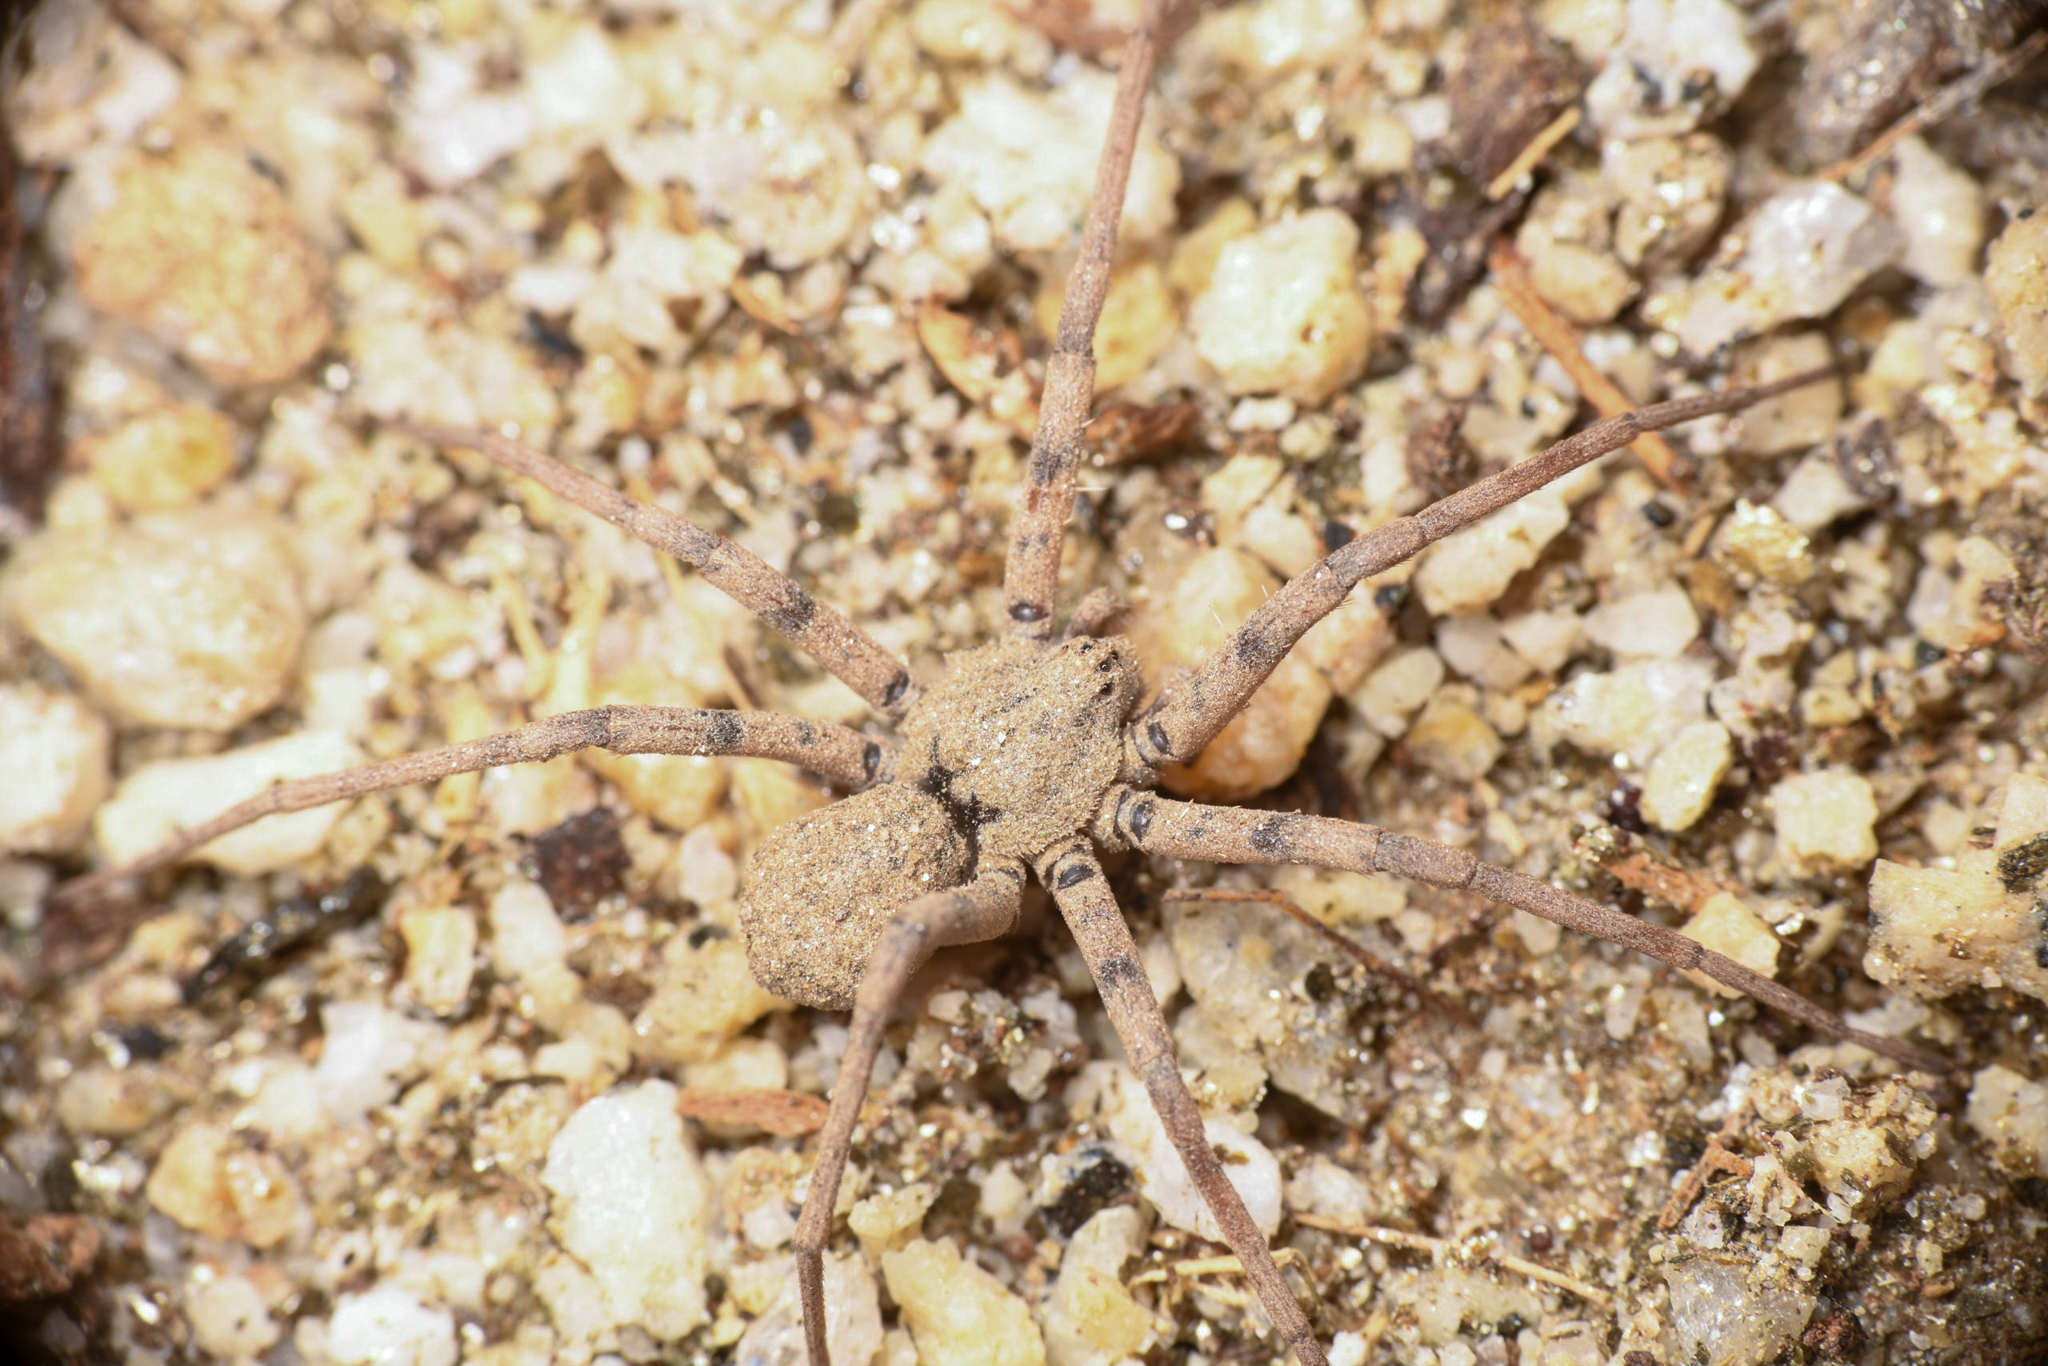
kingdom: Animalia
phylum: Arthropoda
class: Arachnida
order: Araneae
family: Homalonychidae
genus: Homalonychus
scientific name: Homalonychus theologus
